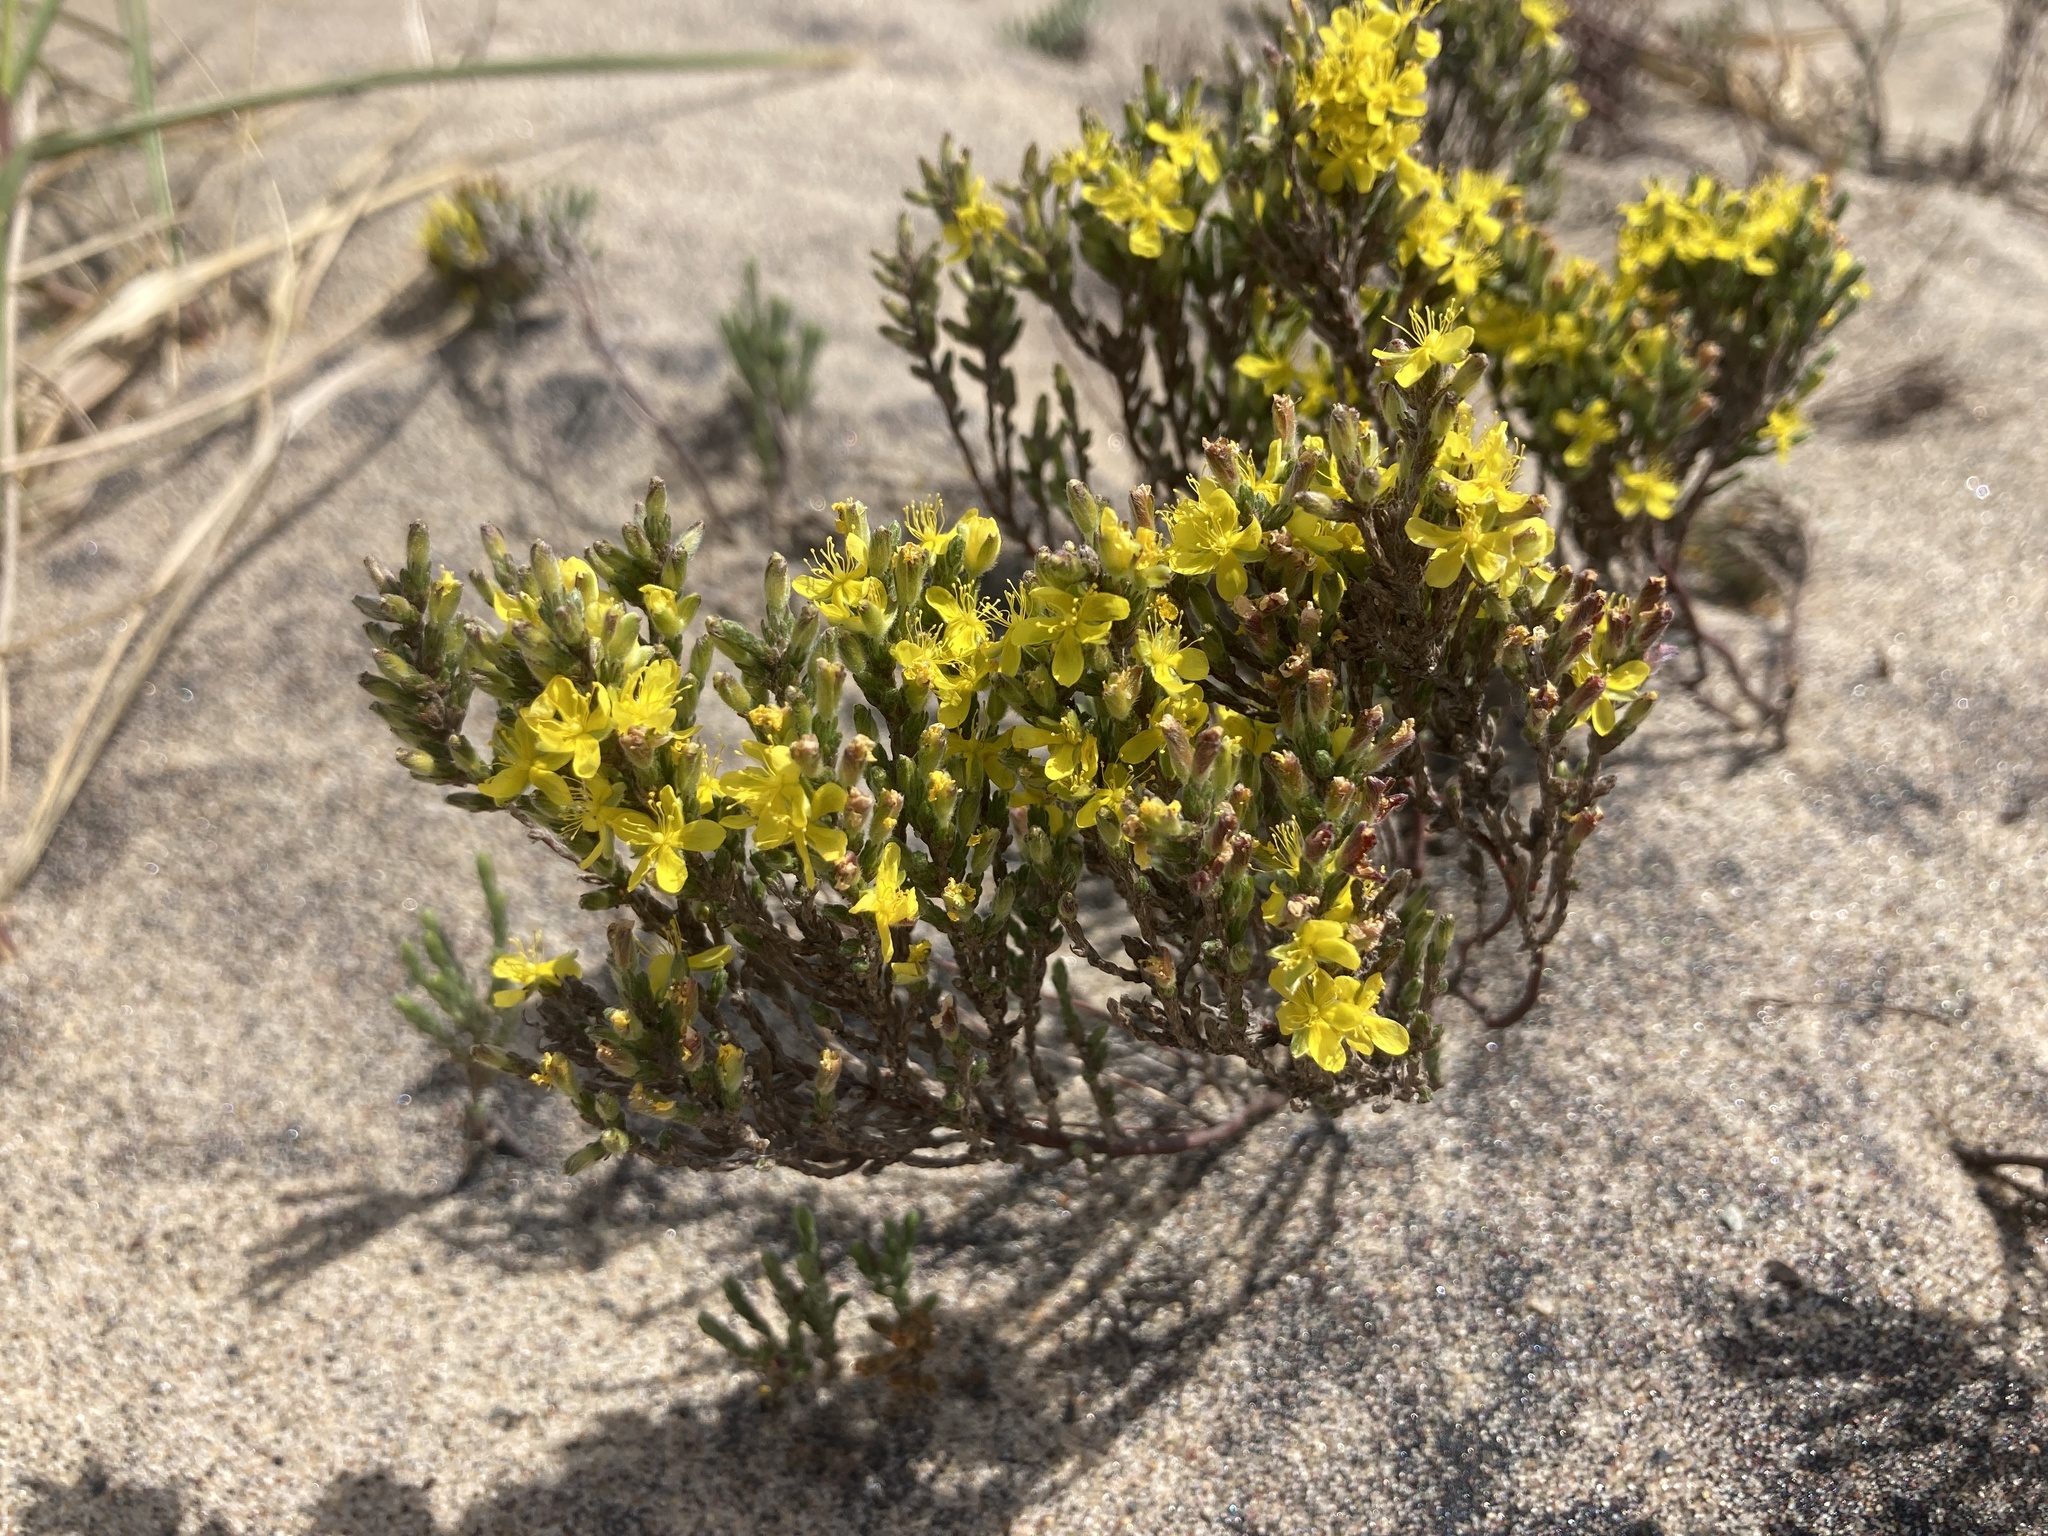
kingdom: Plantae
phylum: Tracheophyta
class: Magnoliopsida
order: Malvales
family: Cistaceae
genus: Hudsonia
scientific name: Hudsonia tomentosa
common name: Beach-heath
